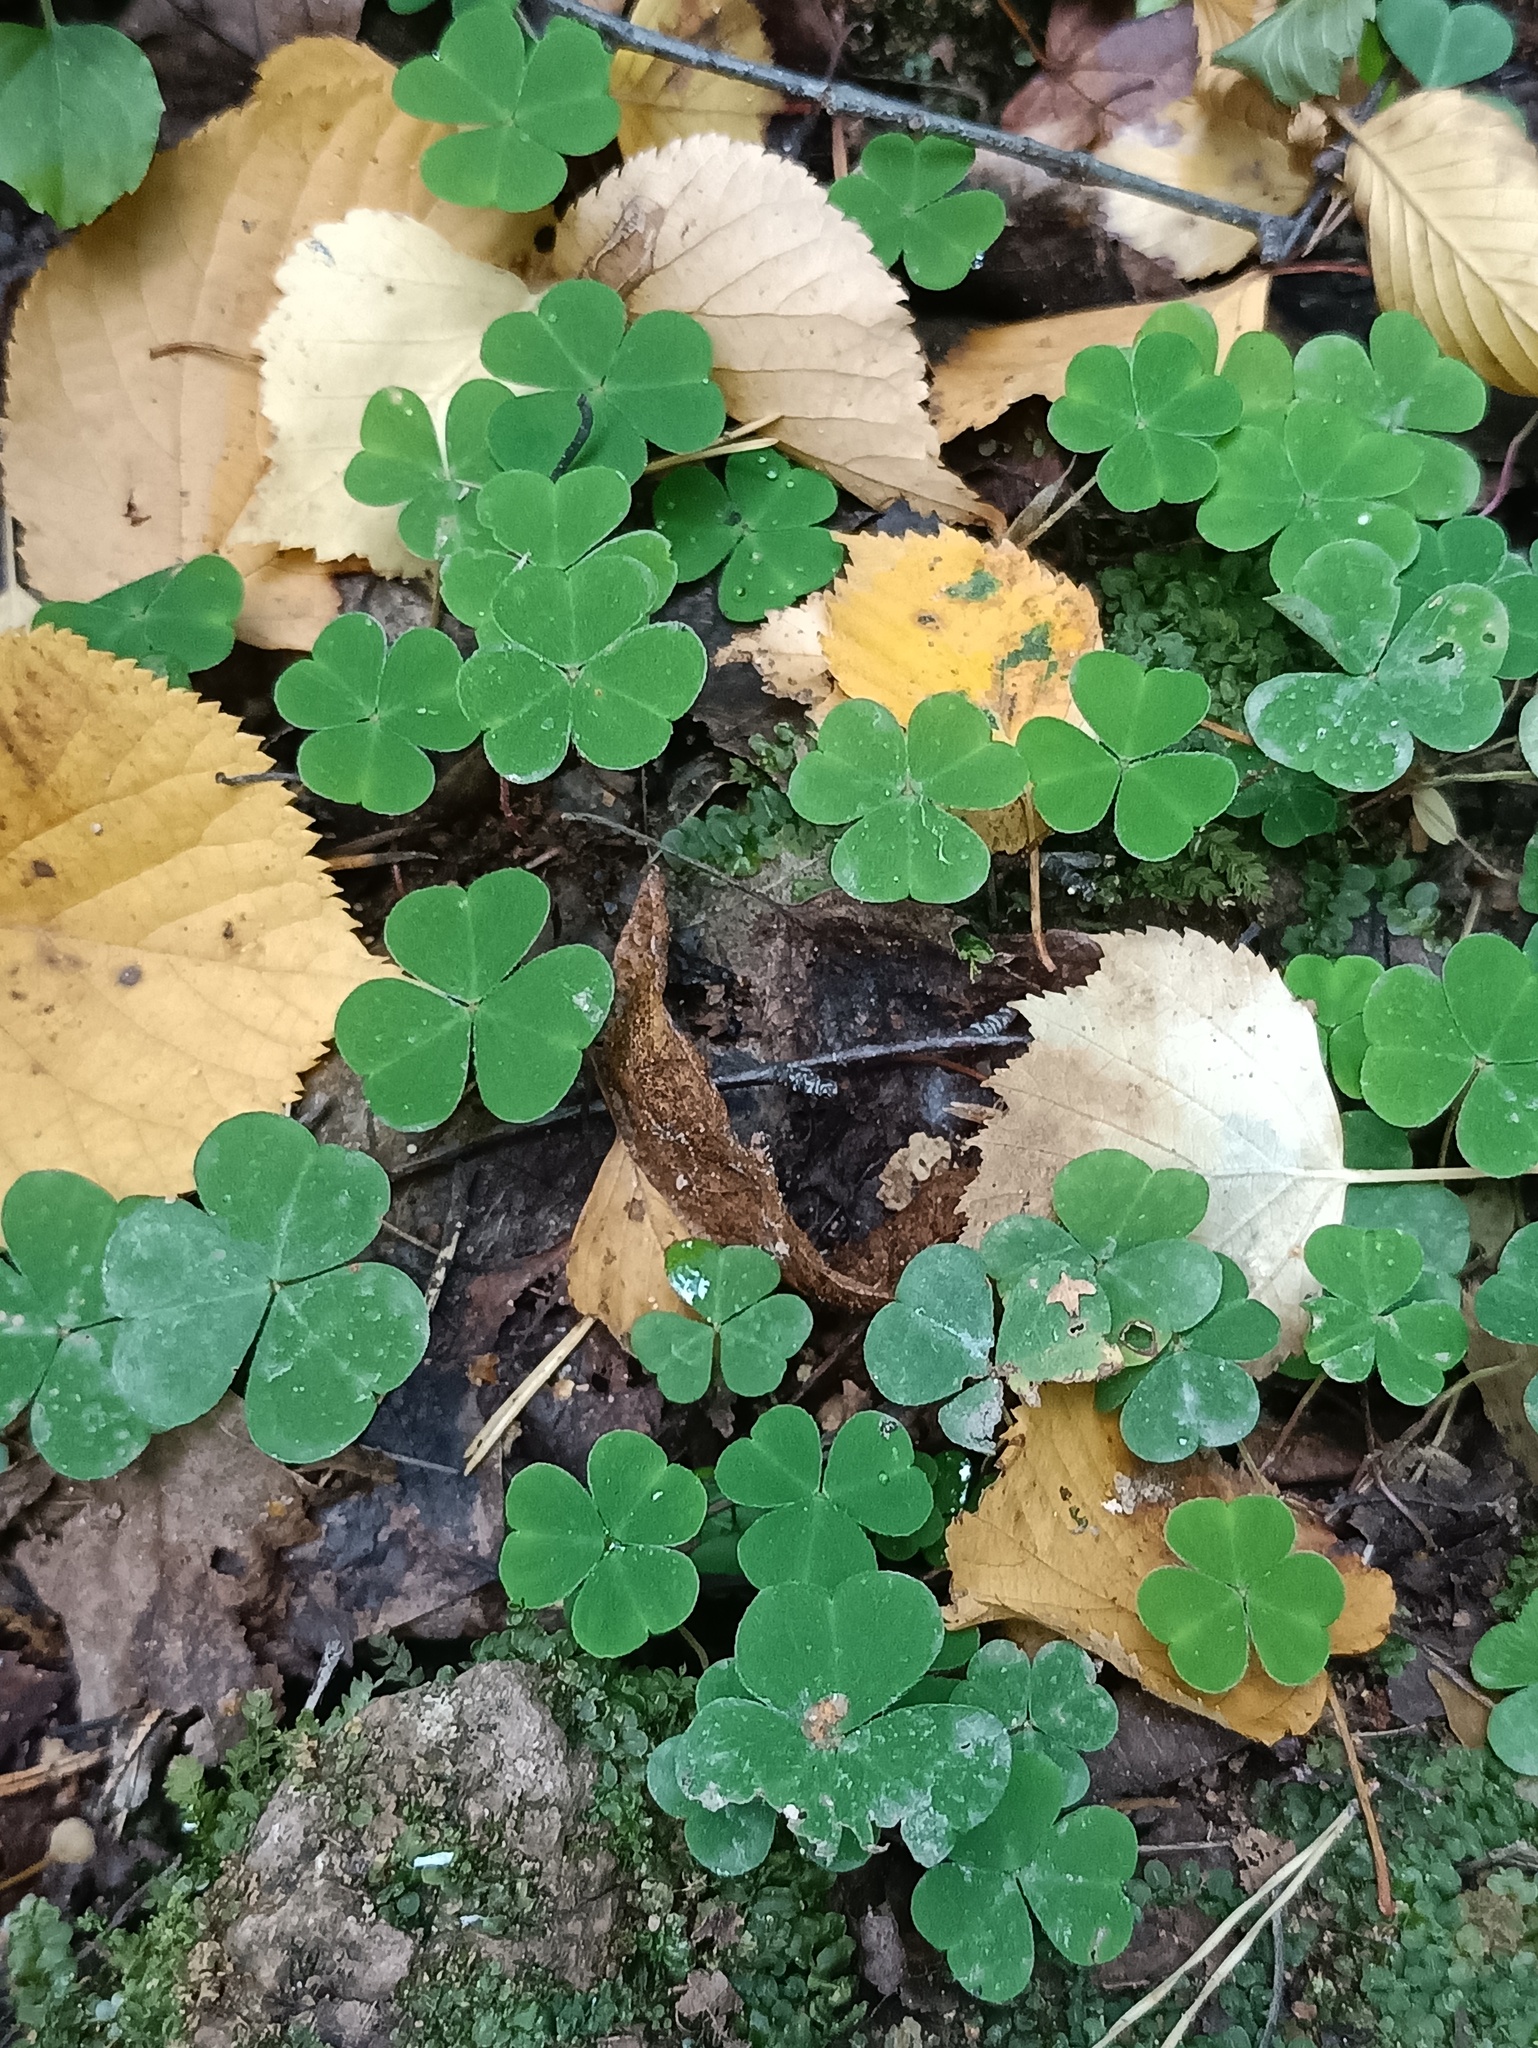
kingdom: Plantae
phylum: Tracheophyta
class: Magnoliopsida
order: Oxalidales
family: Oxalidaceae
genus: Oxalis
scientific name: Oxalis acetosella
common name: Wood-sorrel
